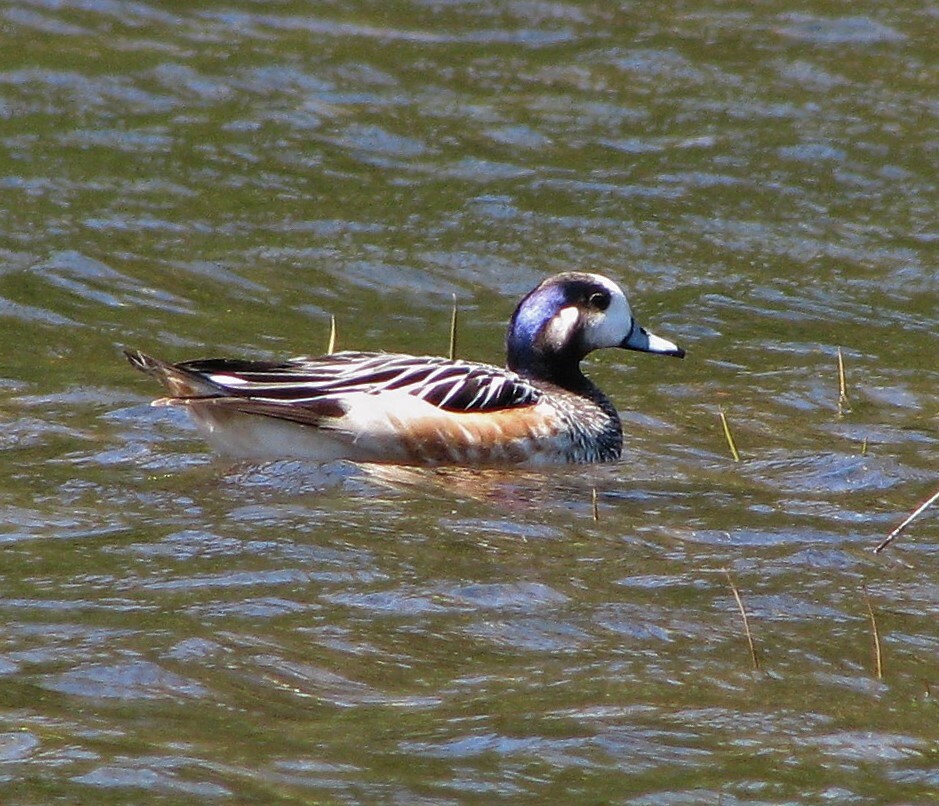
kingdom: Animalia
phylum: Chordata
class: Aves
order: Anseriformes
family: Anatidae
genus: Mareca
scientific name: Mareca sibilatrix
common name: Chiloe wigeon
